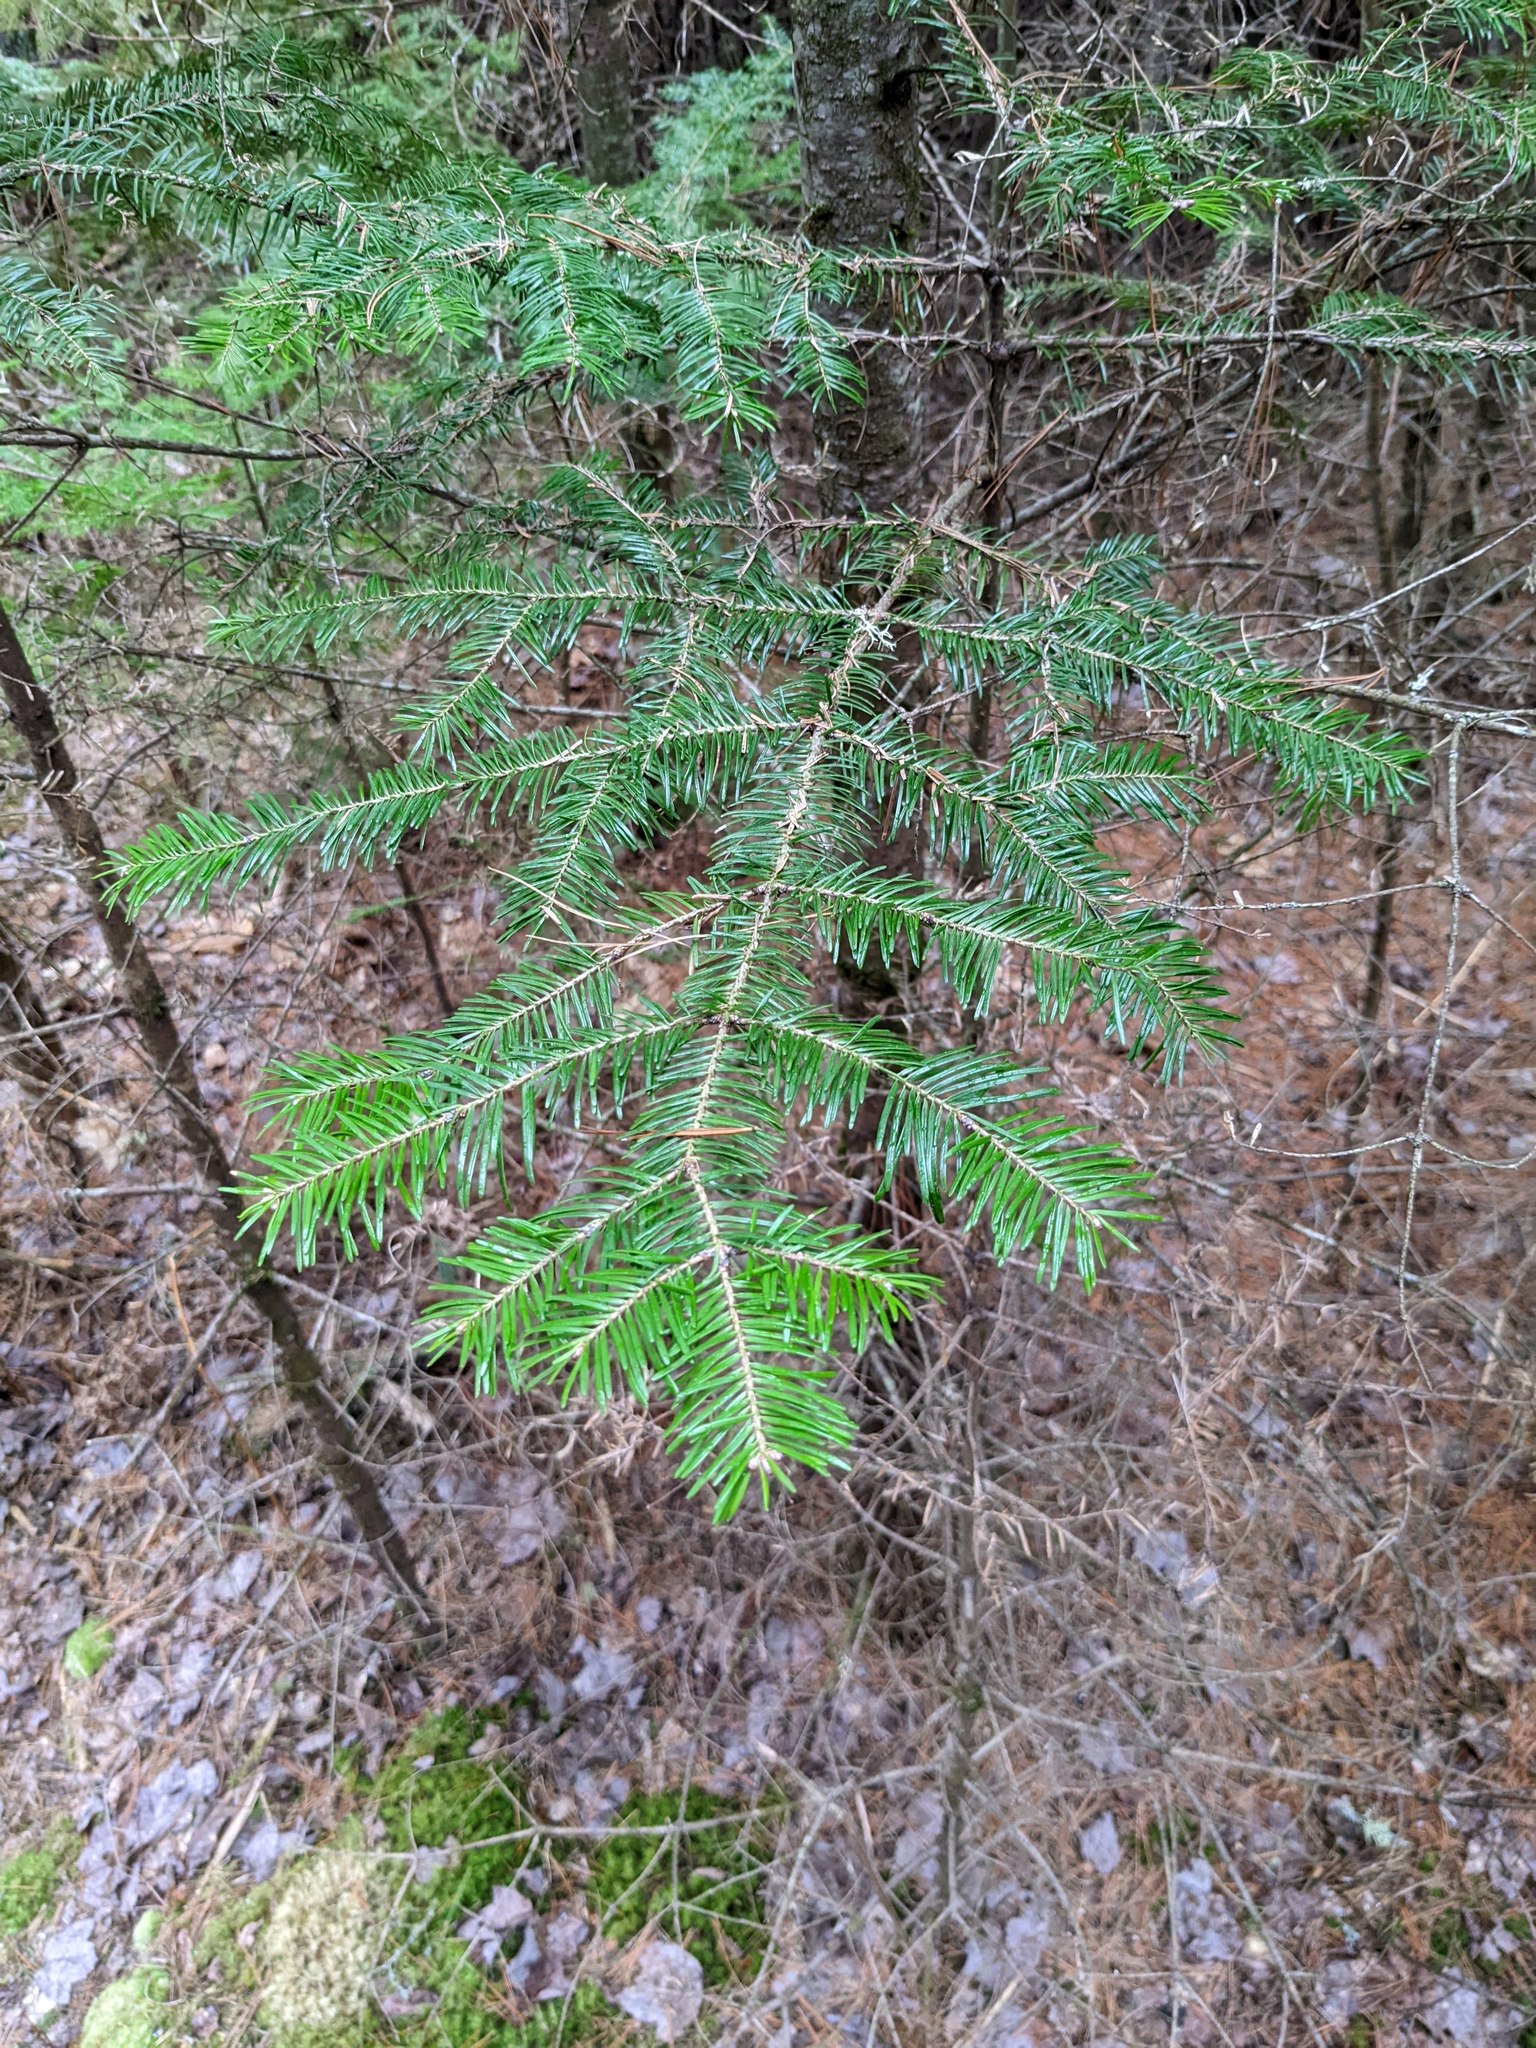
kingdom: Plantae
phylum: Tracheophyta
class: Pinopsida
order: Pinales
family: Pinaceae
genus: Abies
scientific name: Abies balsamea
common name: Balsam fir
